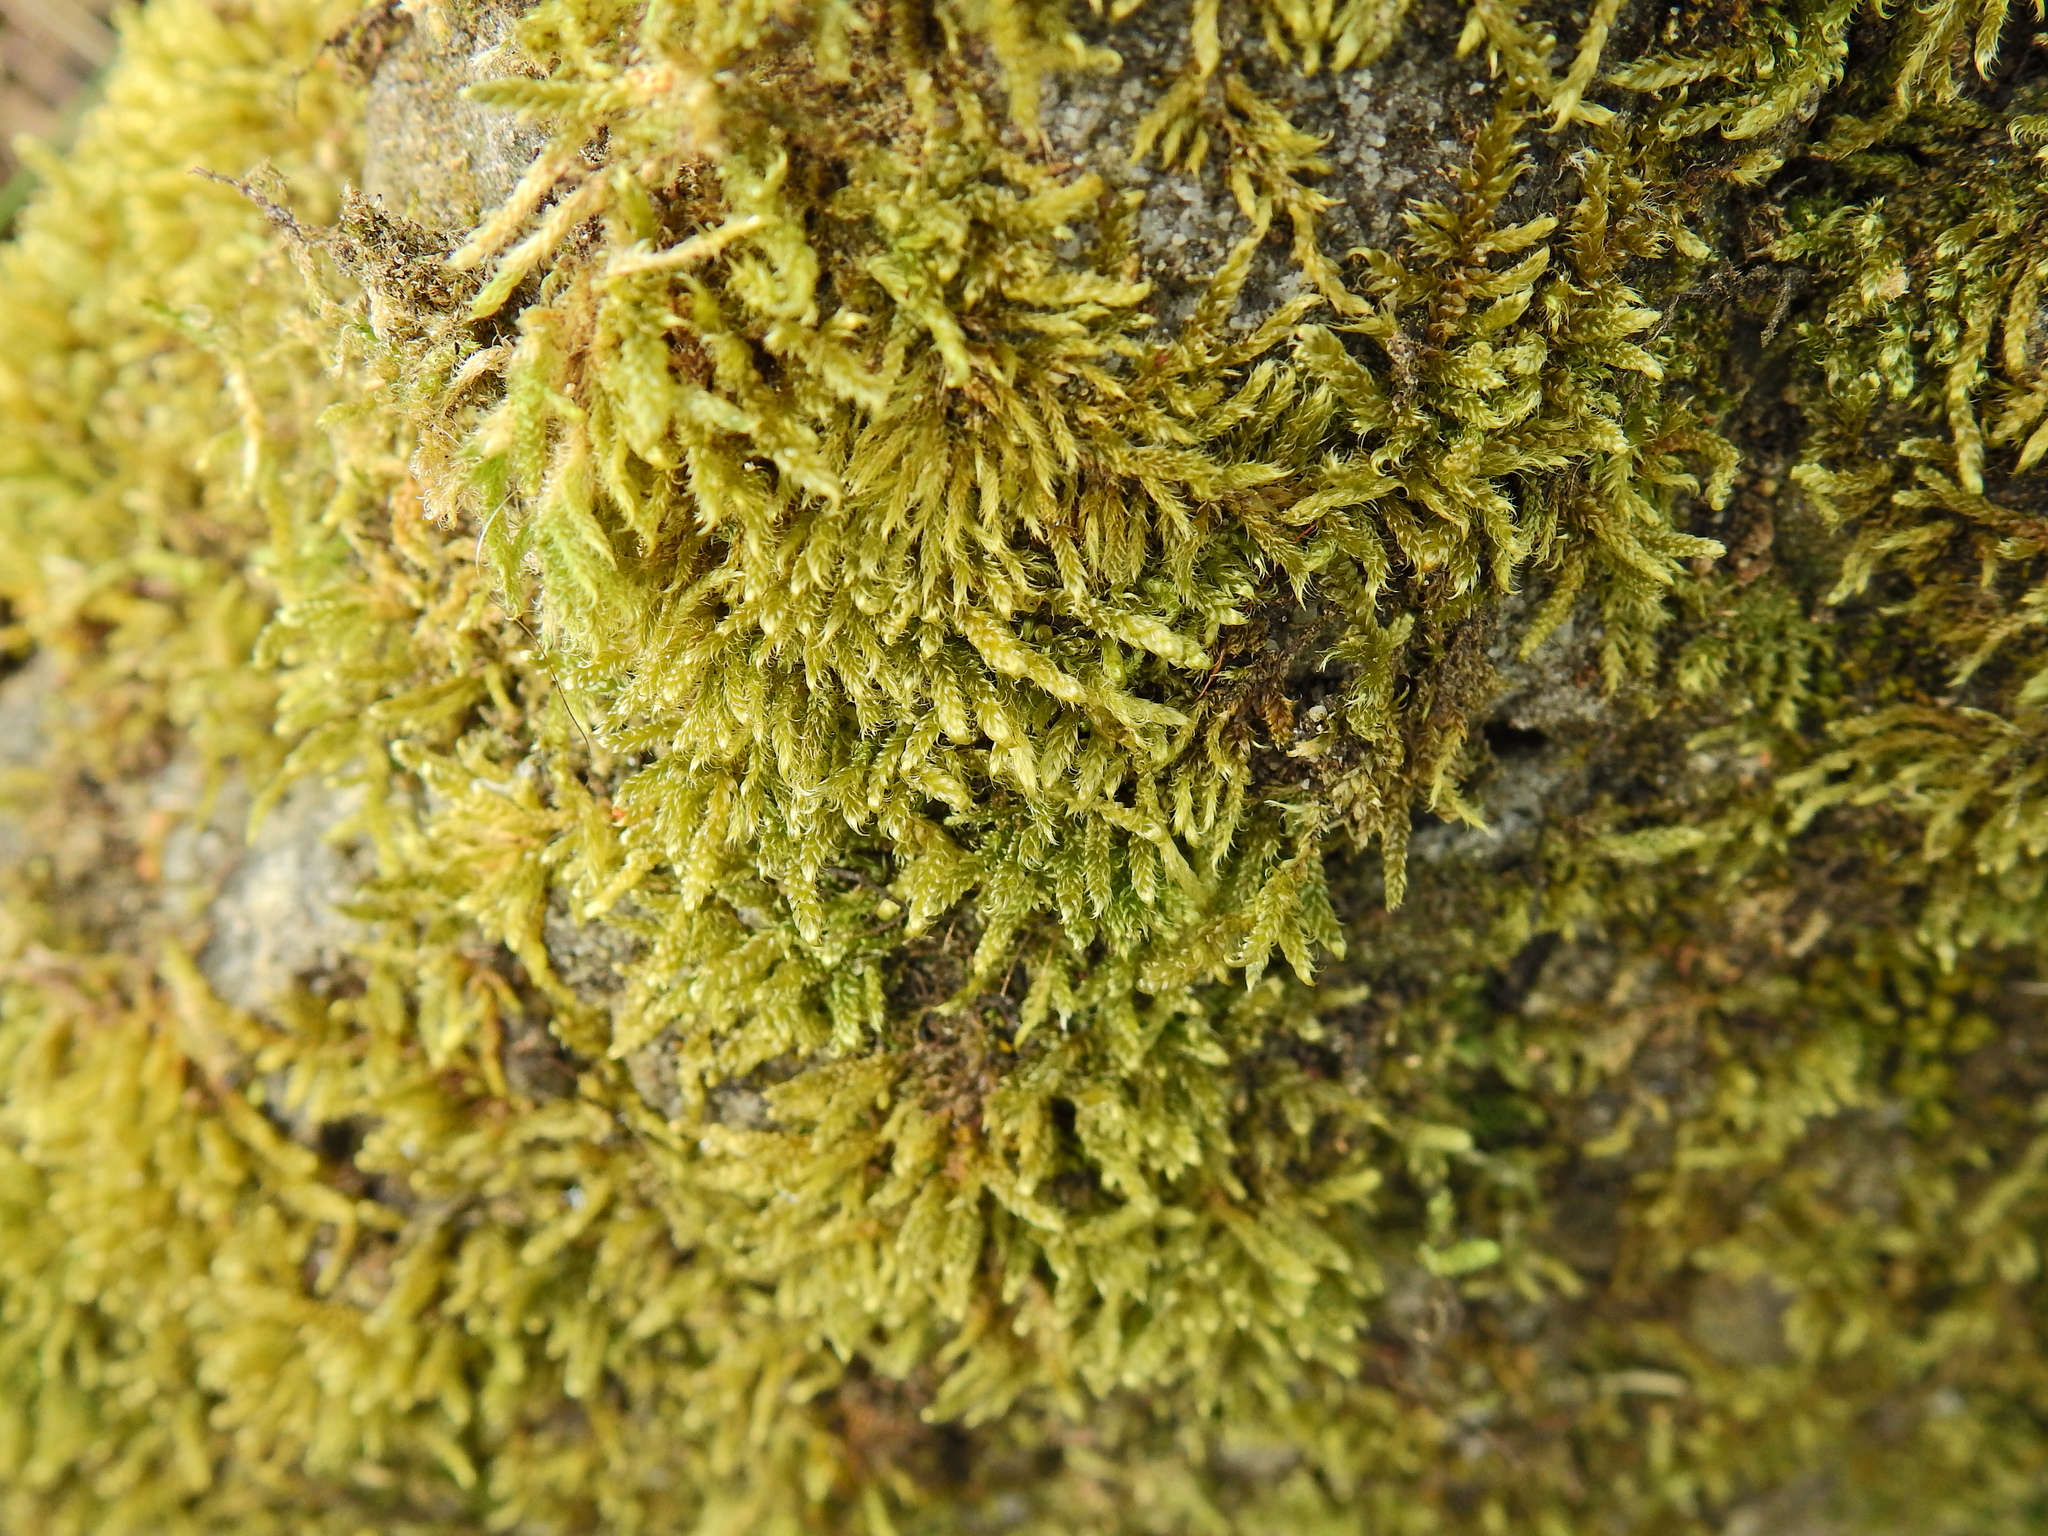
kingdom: Plantae
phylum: Bryophyta
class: Bryopsida
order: Hypnales
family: Hypnaceae
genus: Hypnum
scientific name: Hypnum cupressiforme
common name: Cypress-leaved plait-moss
